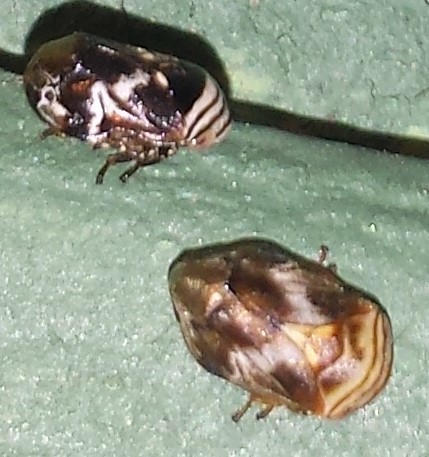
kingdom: Animalia
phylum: Arthropoda
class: Insecta
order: Hemiptera
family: Clastopteridae
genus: Clastoptera
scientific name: Clastoptera obtusa
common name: Alder spittlebug
